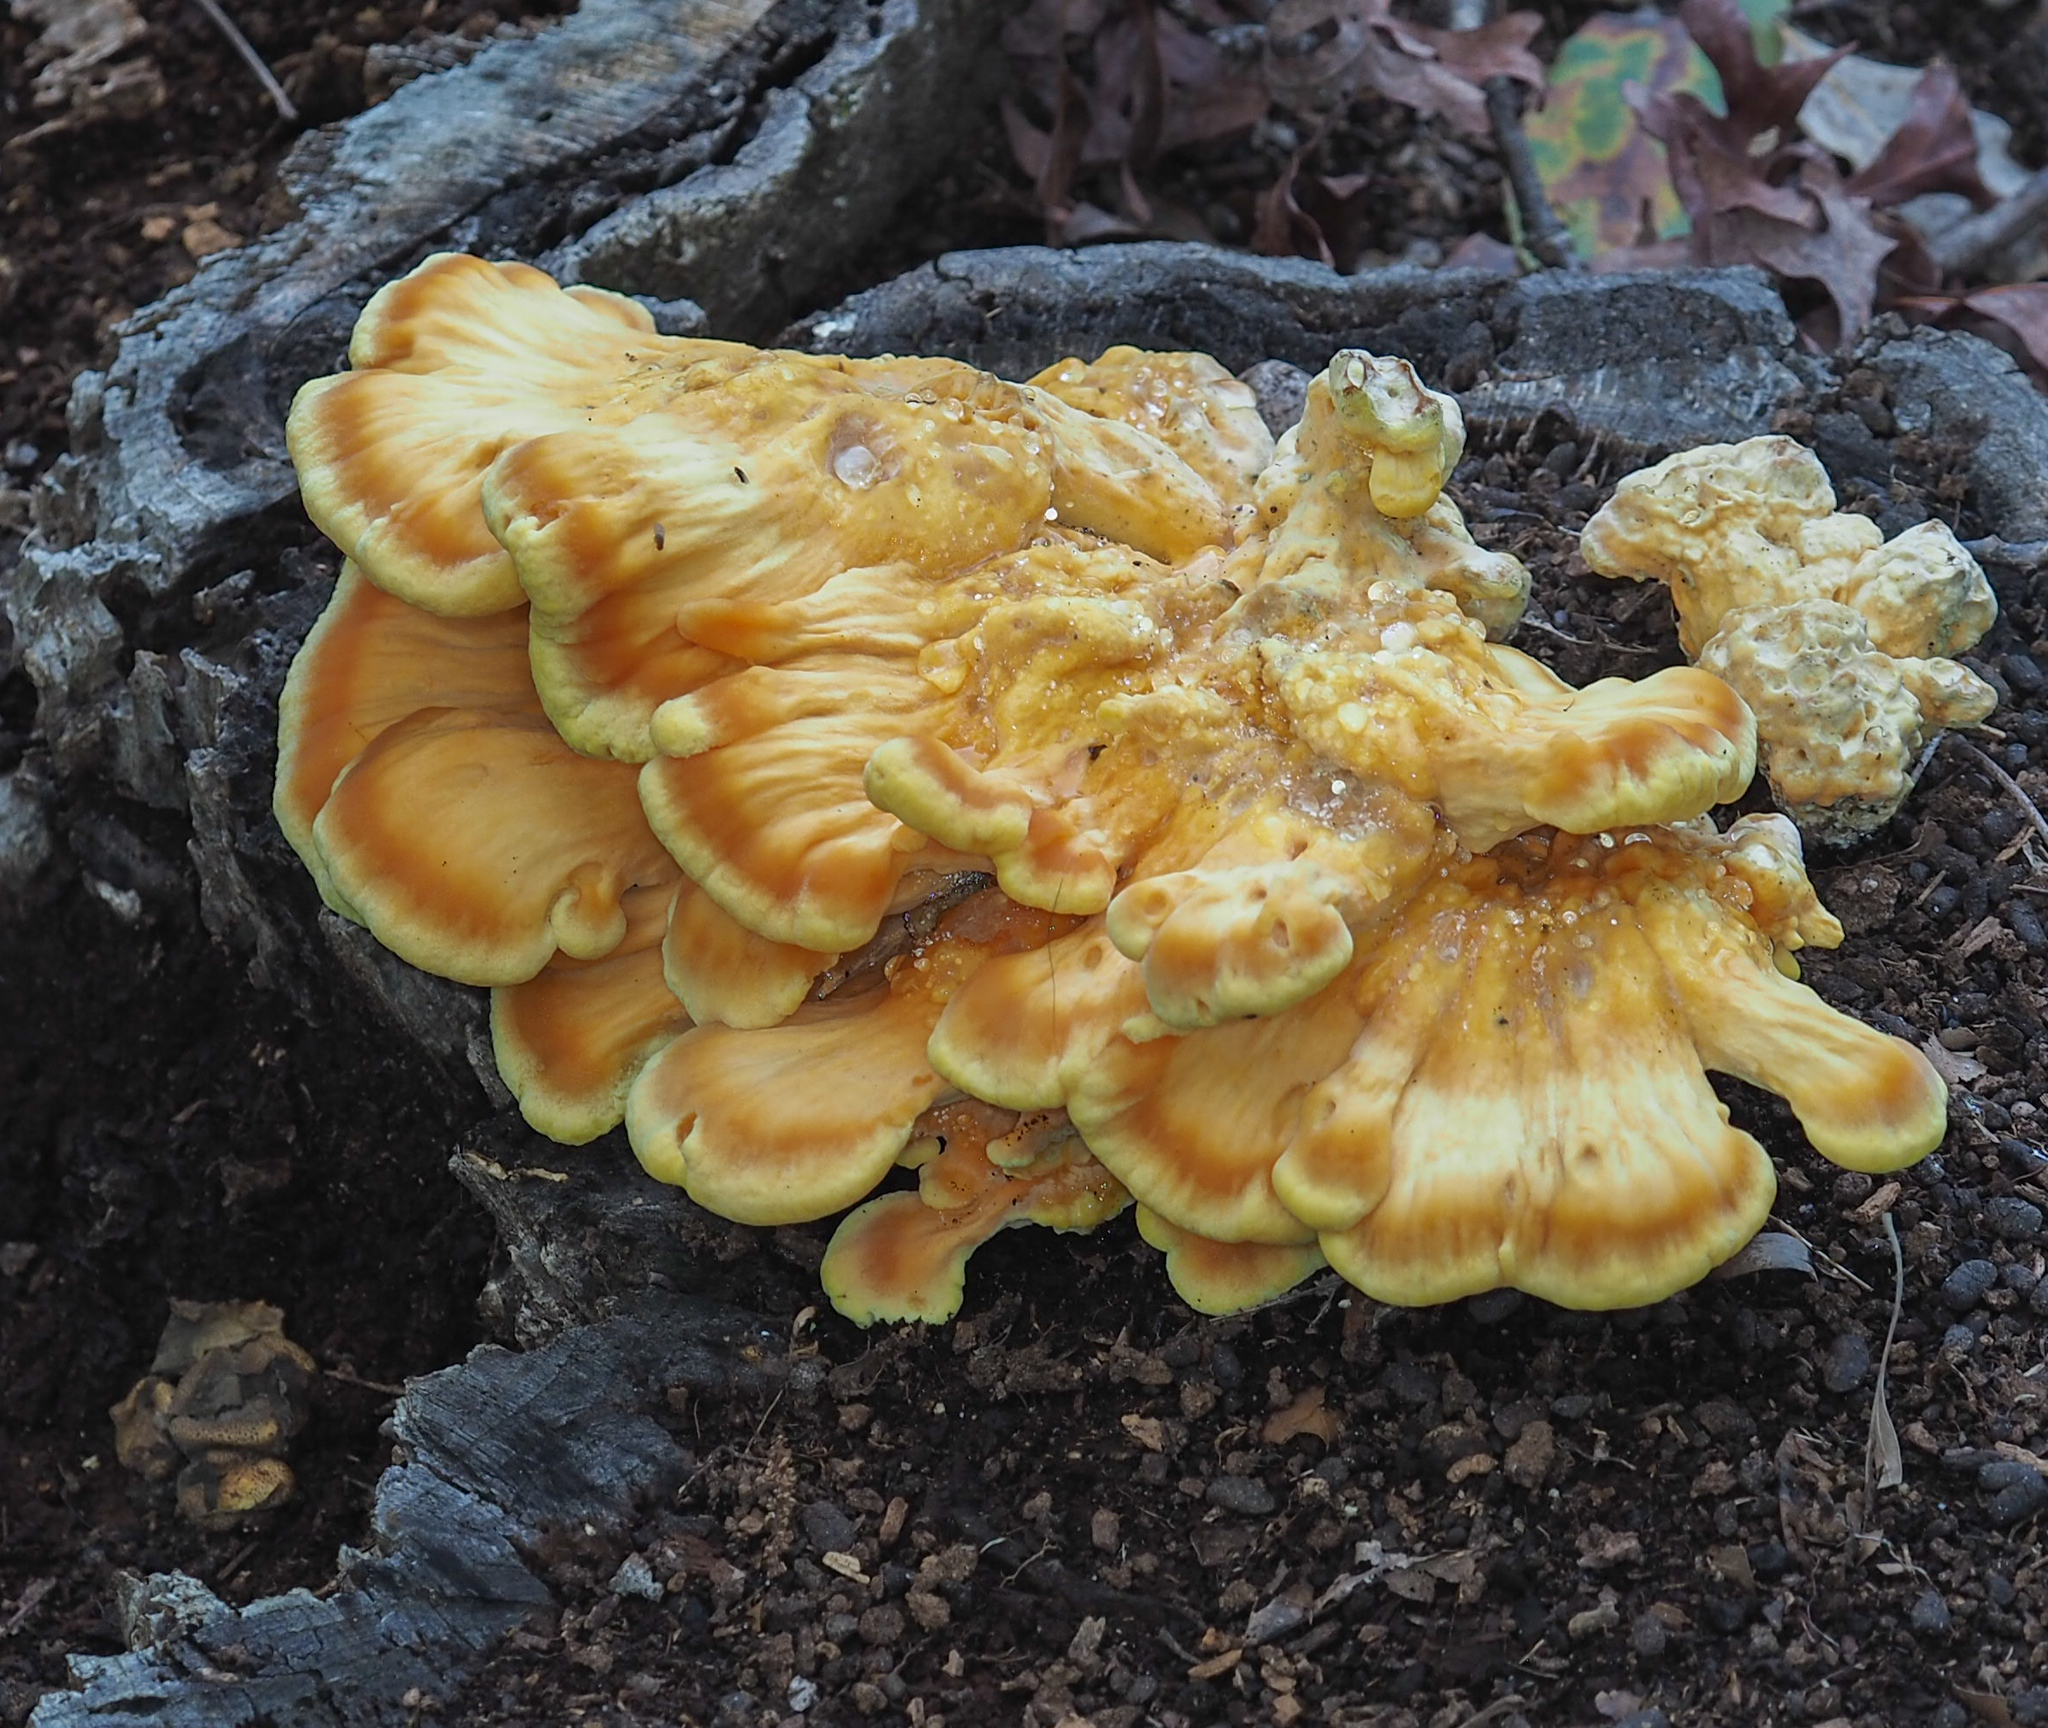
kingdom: Fungi
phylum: Basidiomycota
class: Agaricomycetes
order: Polyporales
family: Laetiporaceae
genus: Laetiporus
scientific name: Laetiporus sulphureus
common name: Chicken of the woods
